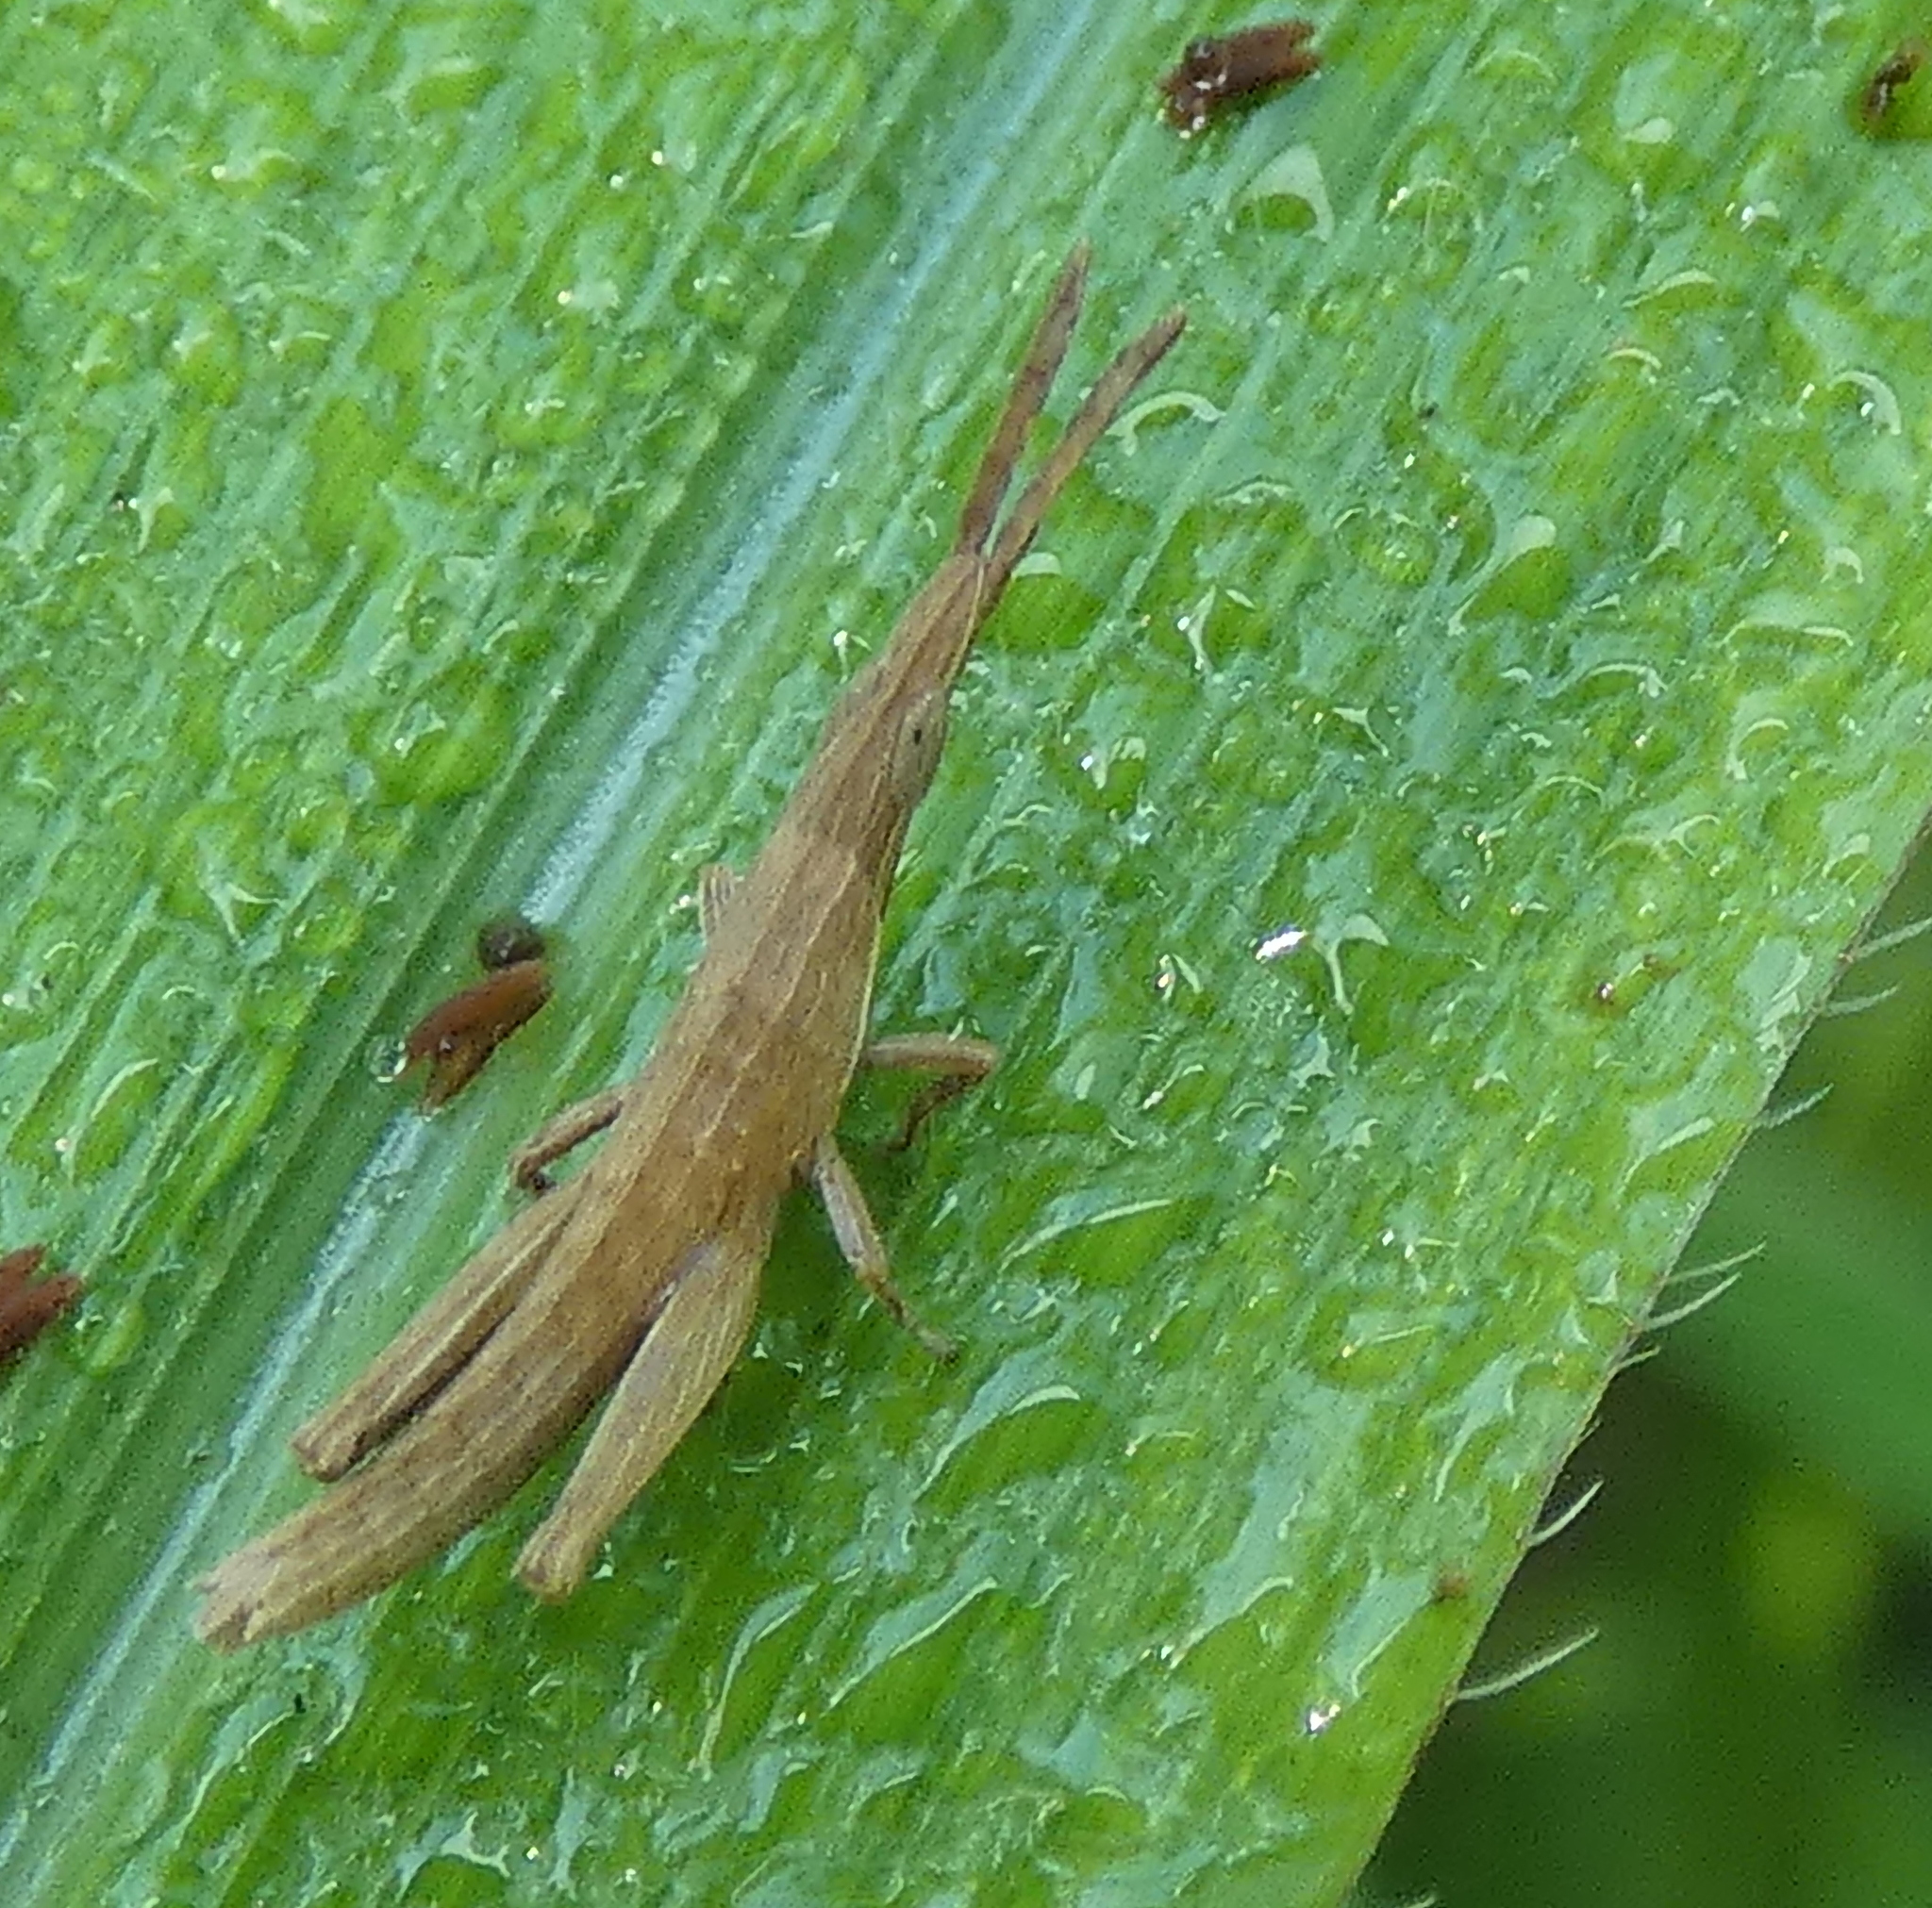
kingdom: Animalia
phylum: Arthropoda
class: Insecta
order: Orthoptera
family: Pyrgomorphidae
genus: Algete
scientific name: Algete brunneri
